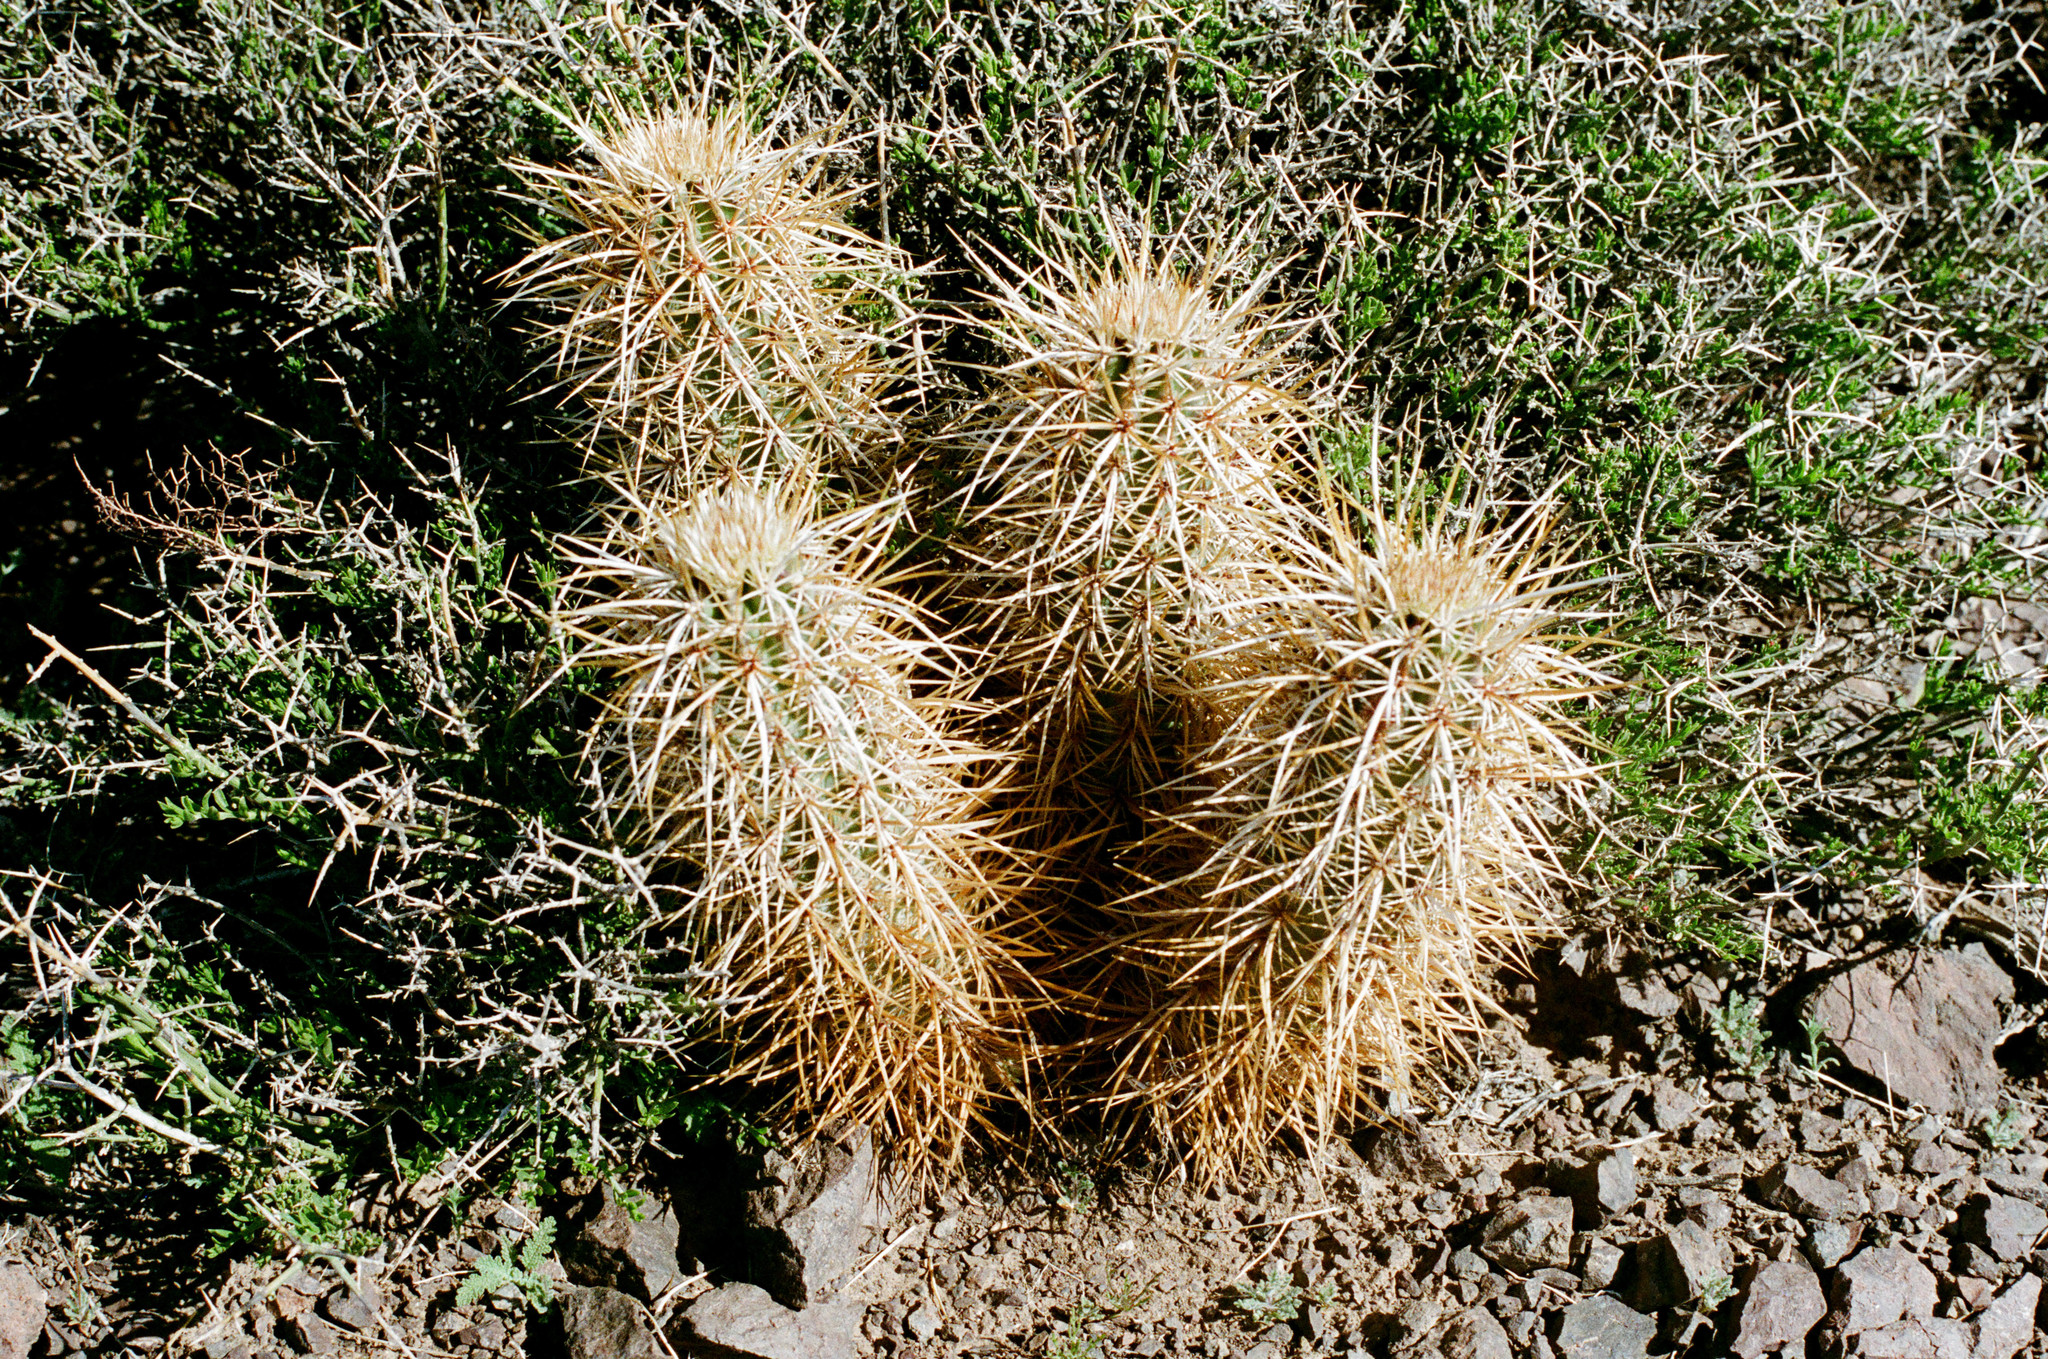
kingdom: Plantae
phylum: Tracheophyta
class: Magnoliopsida
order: Caryophyllales
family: Cactaceae
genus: Echinocereus
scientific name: Echinocereus engelmannii
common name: Engelmann's hedgehog cactus
